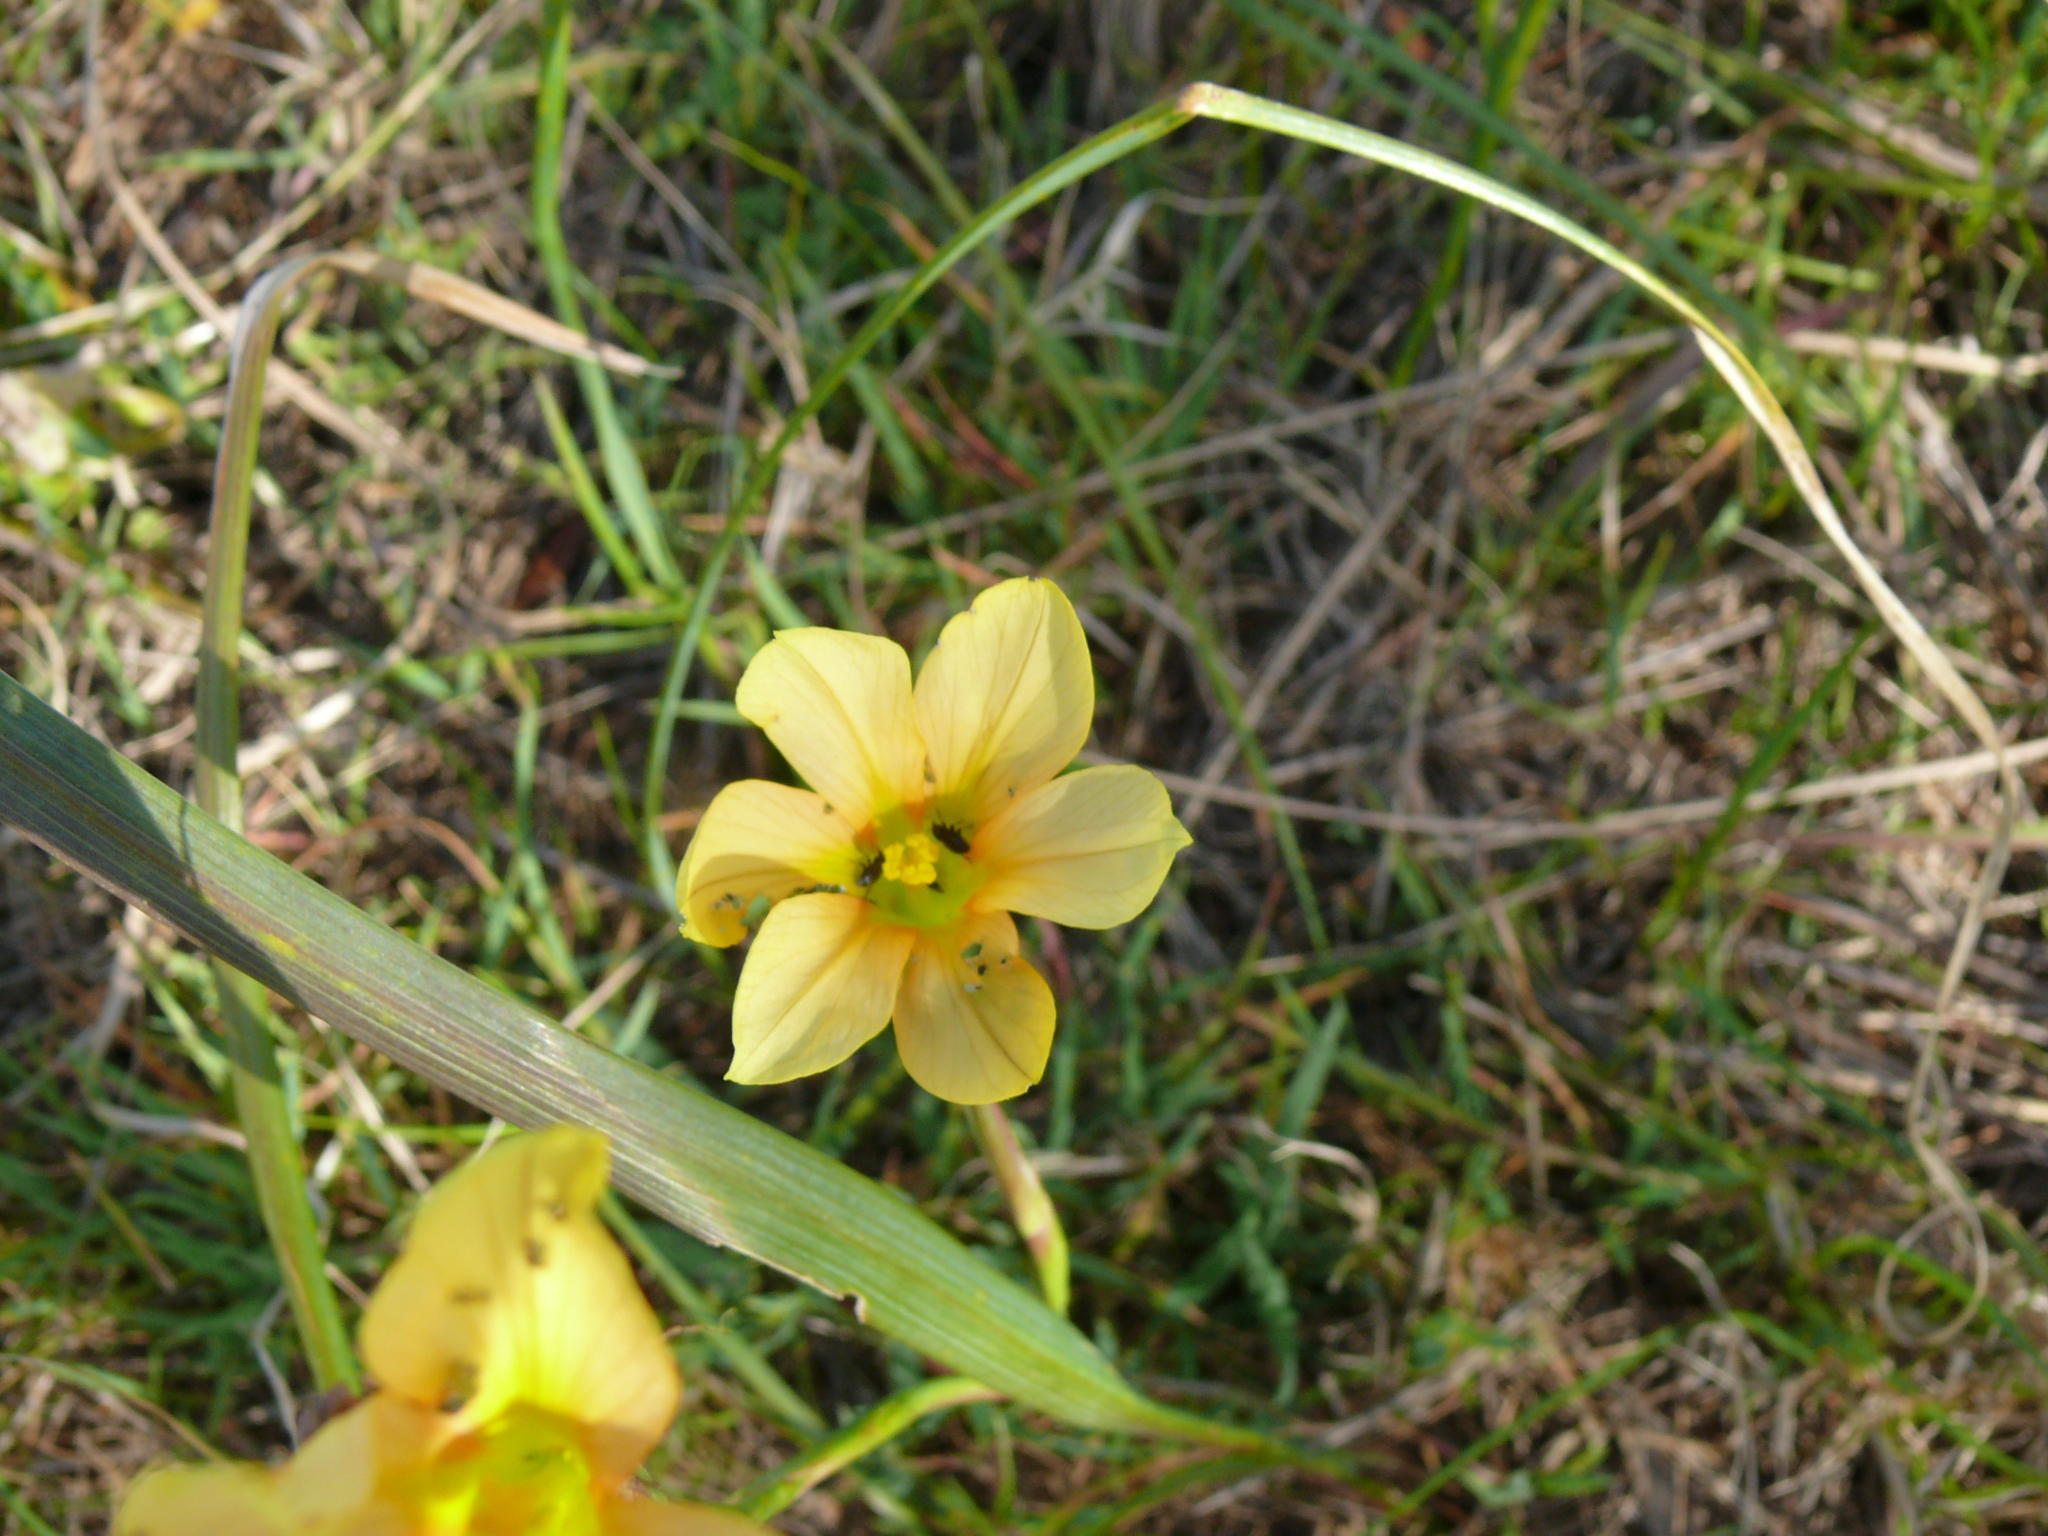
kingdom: Plantae
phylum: Tracheophyta
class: Liliopsida
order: Asparagales
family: Iridaceae
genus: Moraea
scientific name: Moraea ochroleuca
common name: Red tulp
